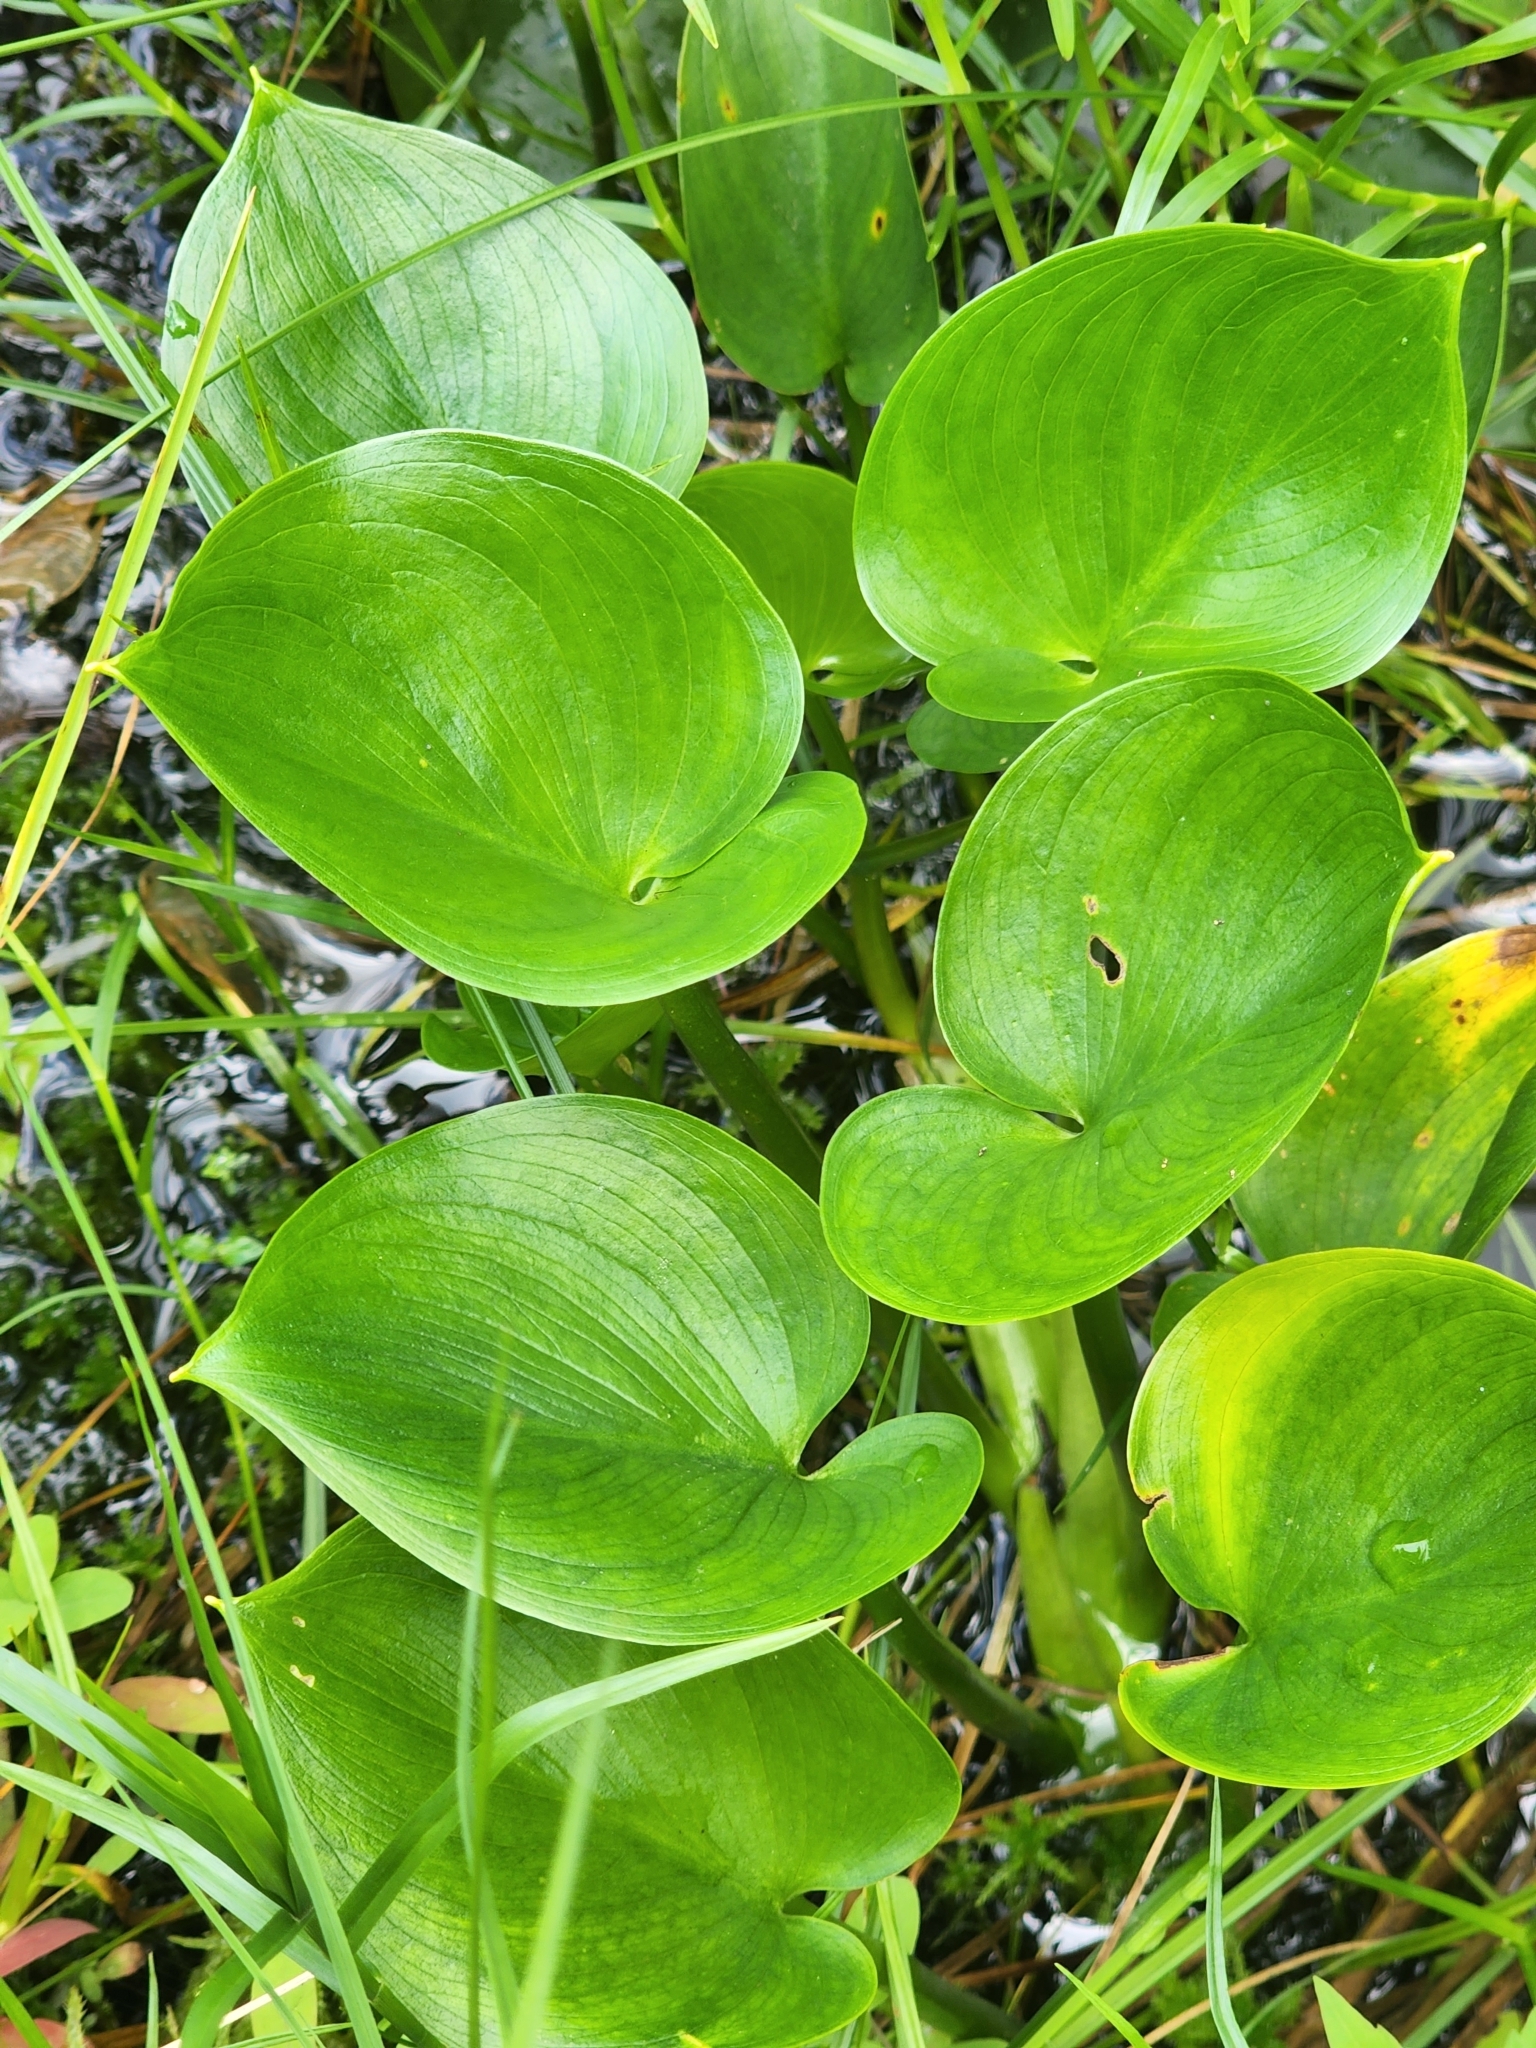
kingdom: Plantae
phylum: Tracheophyta
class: Liliopsida
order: Alismatales
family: Araceae
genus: Calla
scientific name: Calla palustris
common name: Bog arum
